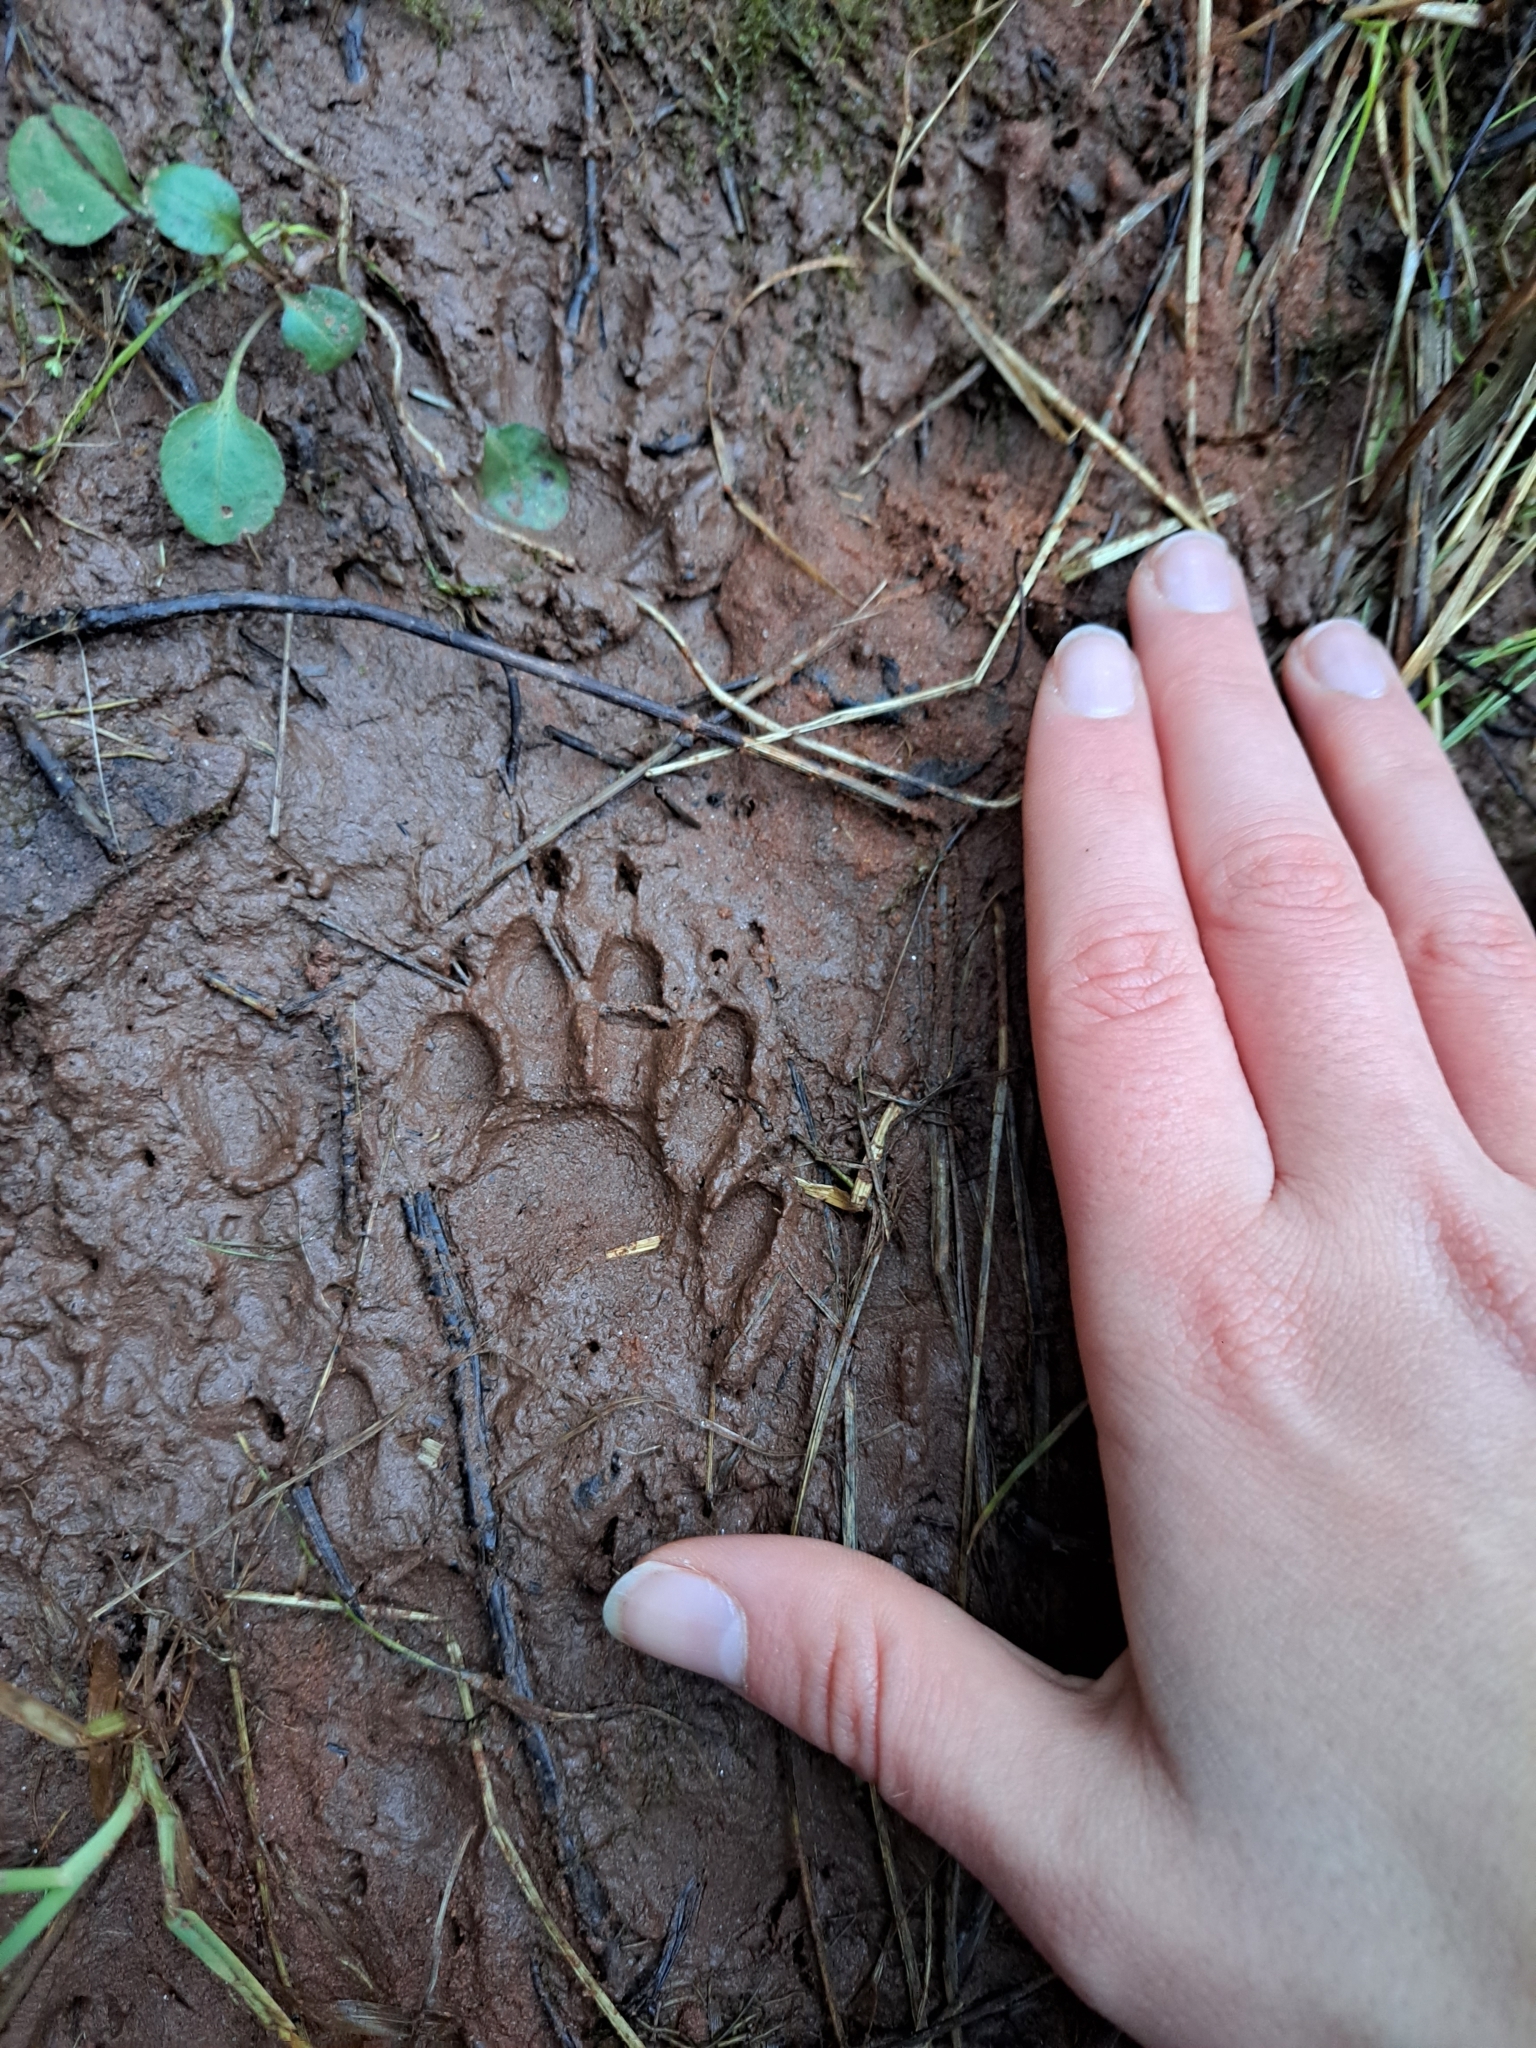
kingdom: Animalia
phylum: Chordata
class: Mammalia
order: Carnivora
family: Procyonidae
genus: Procyon
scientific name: Procyon lotor
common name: Raccoon
